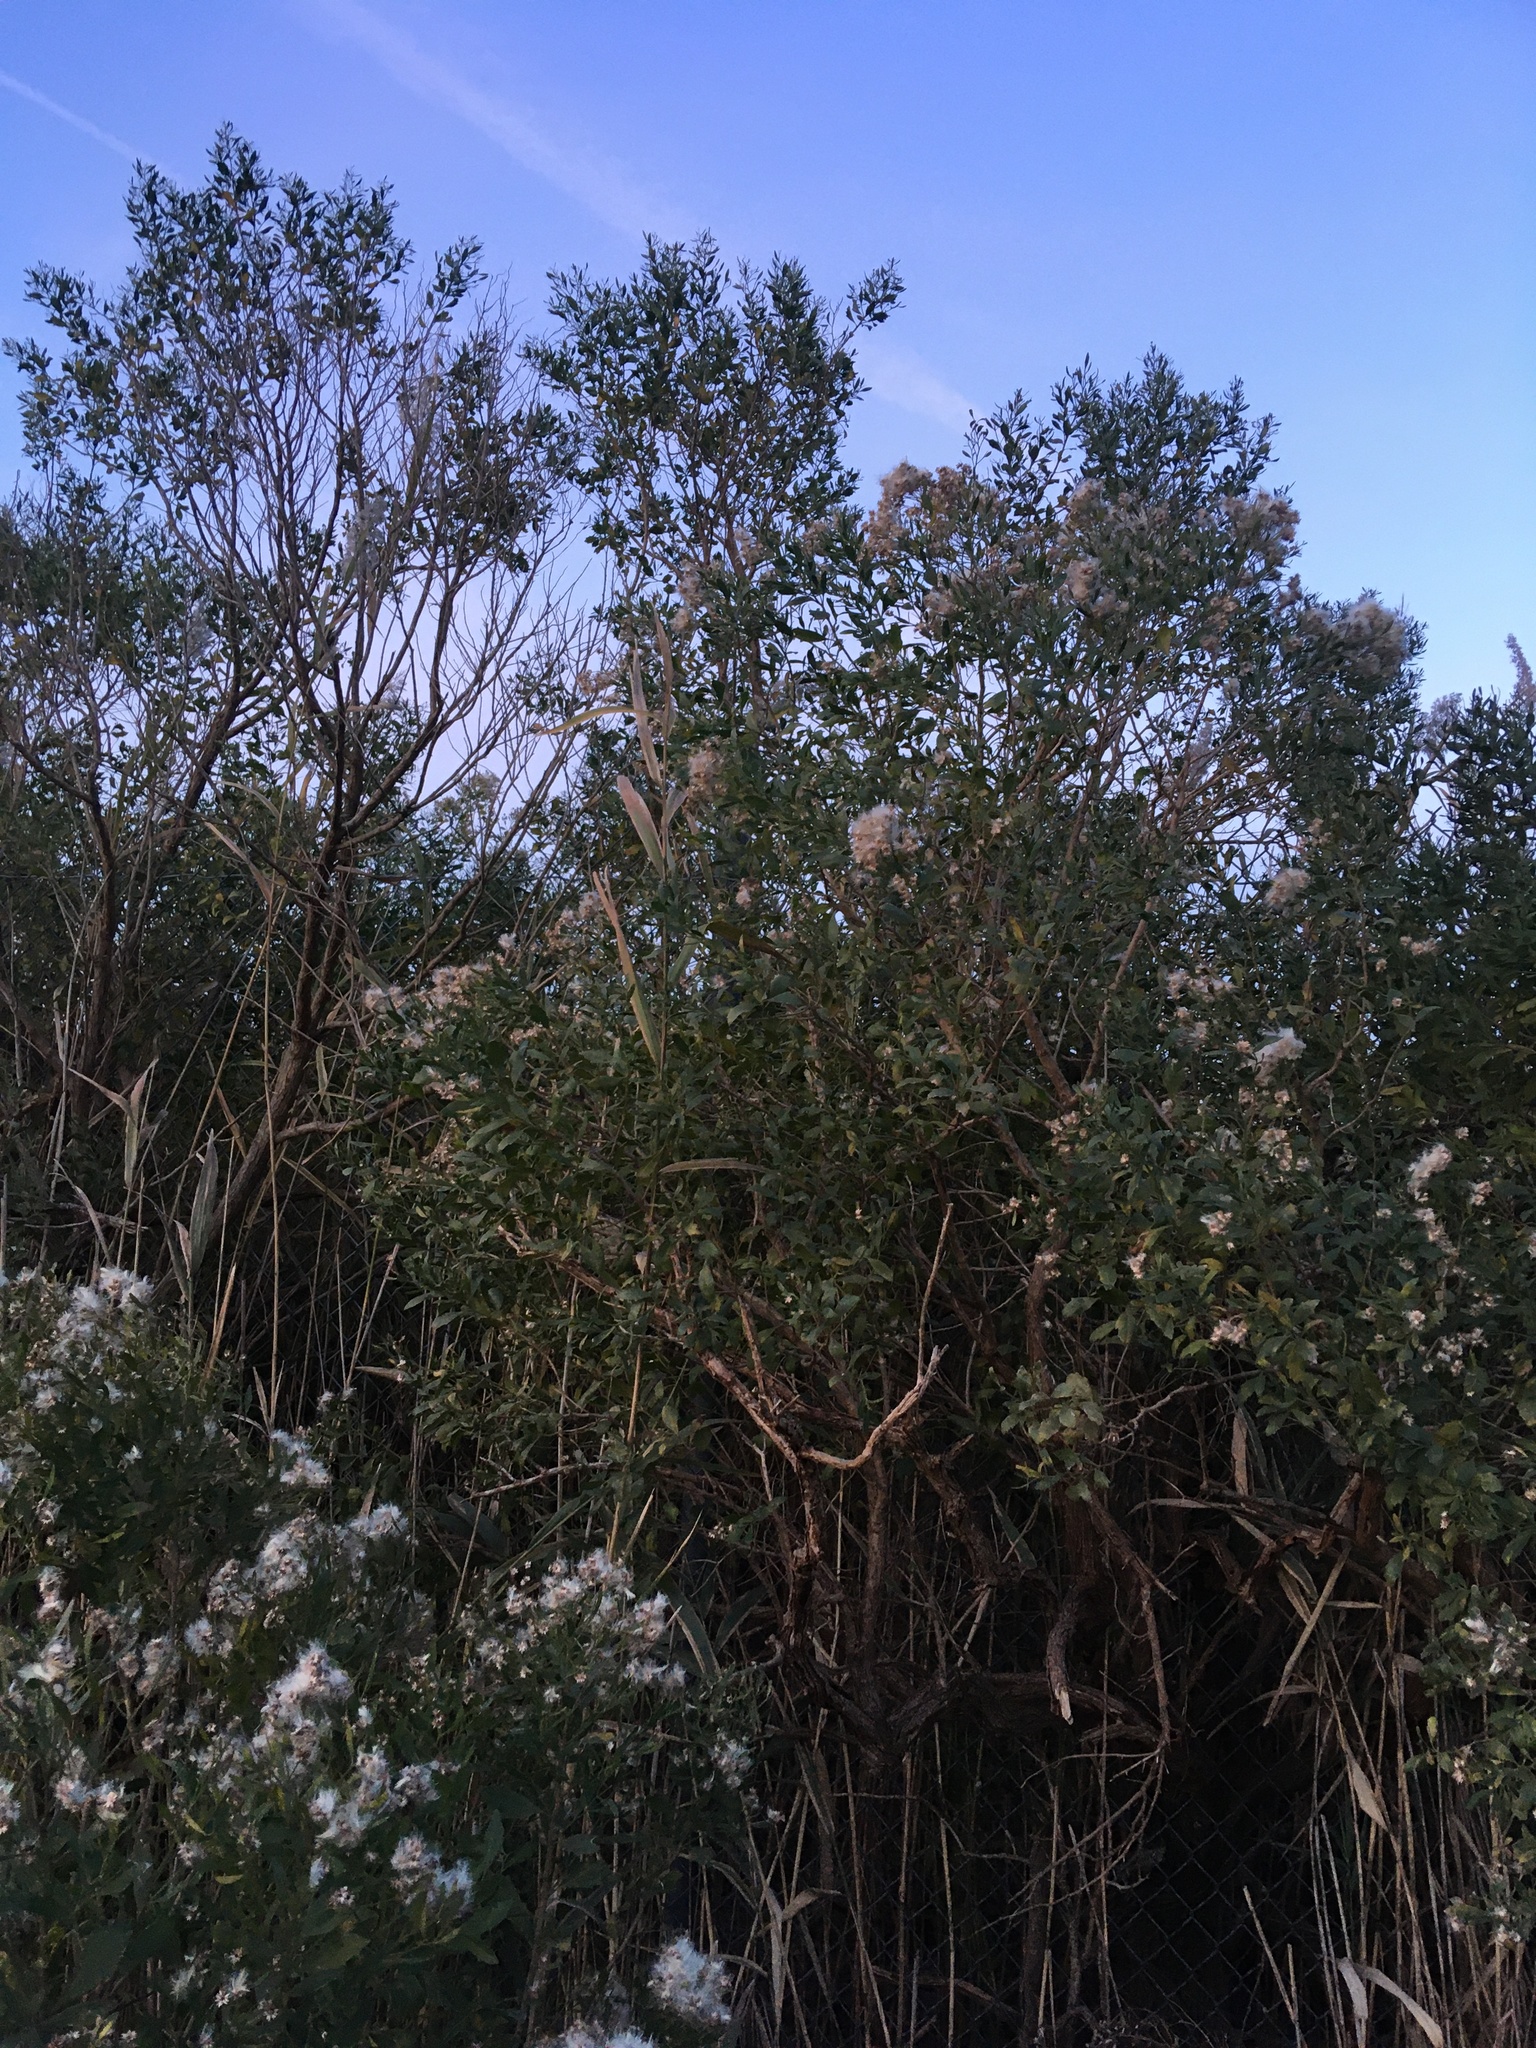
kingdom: Plantae
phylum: Tracheophyta
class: Magnoliopsida
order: Asterales
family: Asteraceae
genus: Baccharis
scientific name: Baccharis halimifolia
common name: Eastern baccharis
